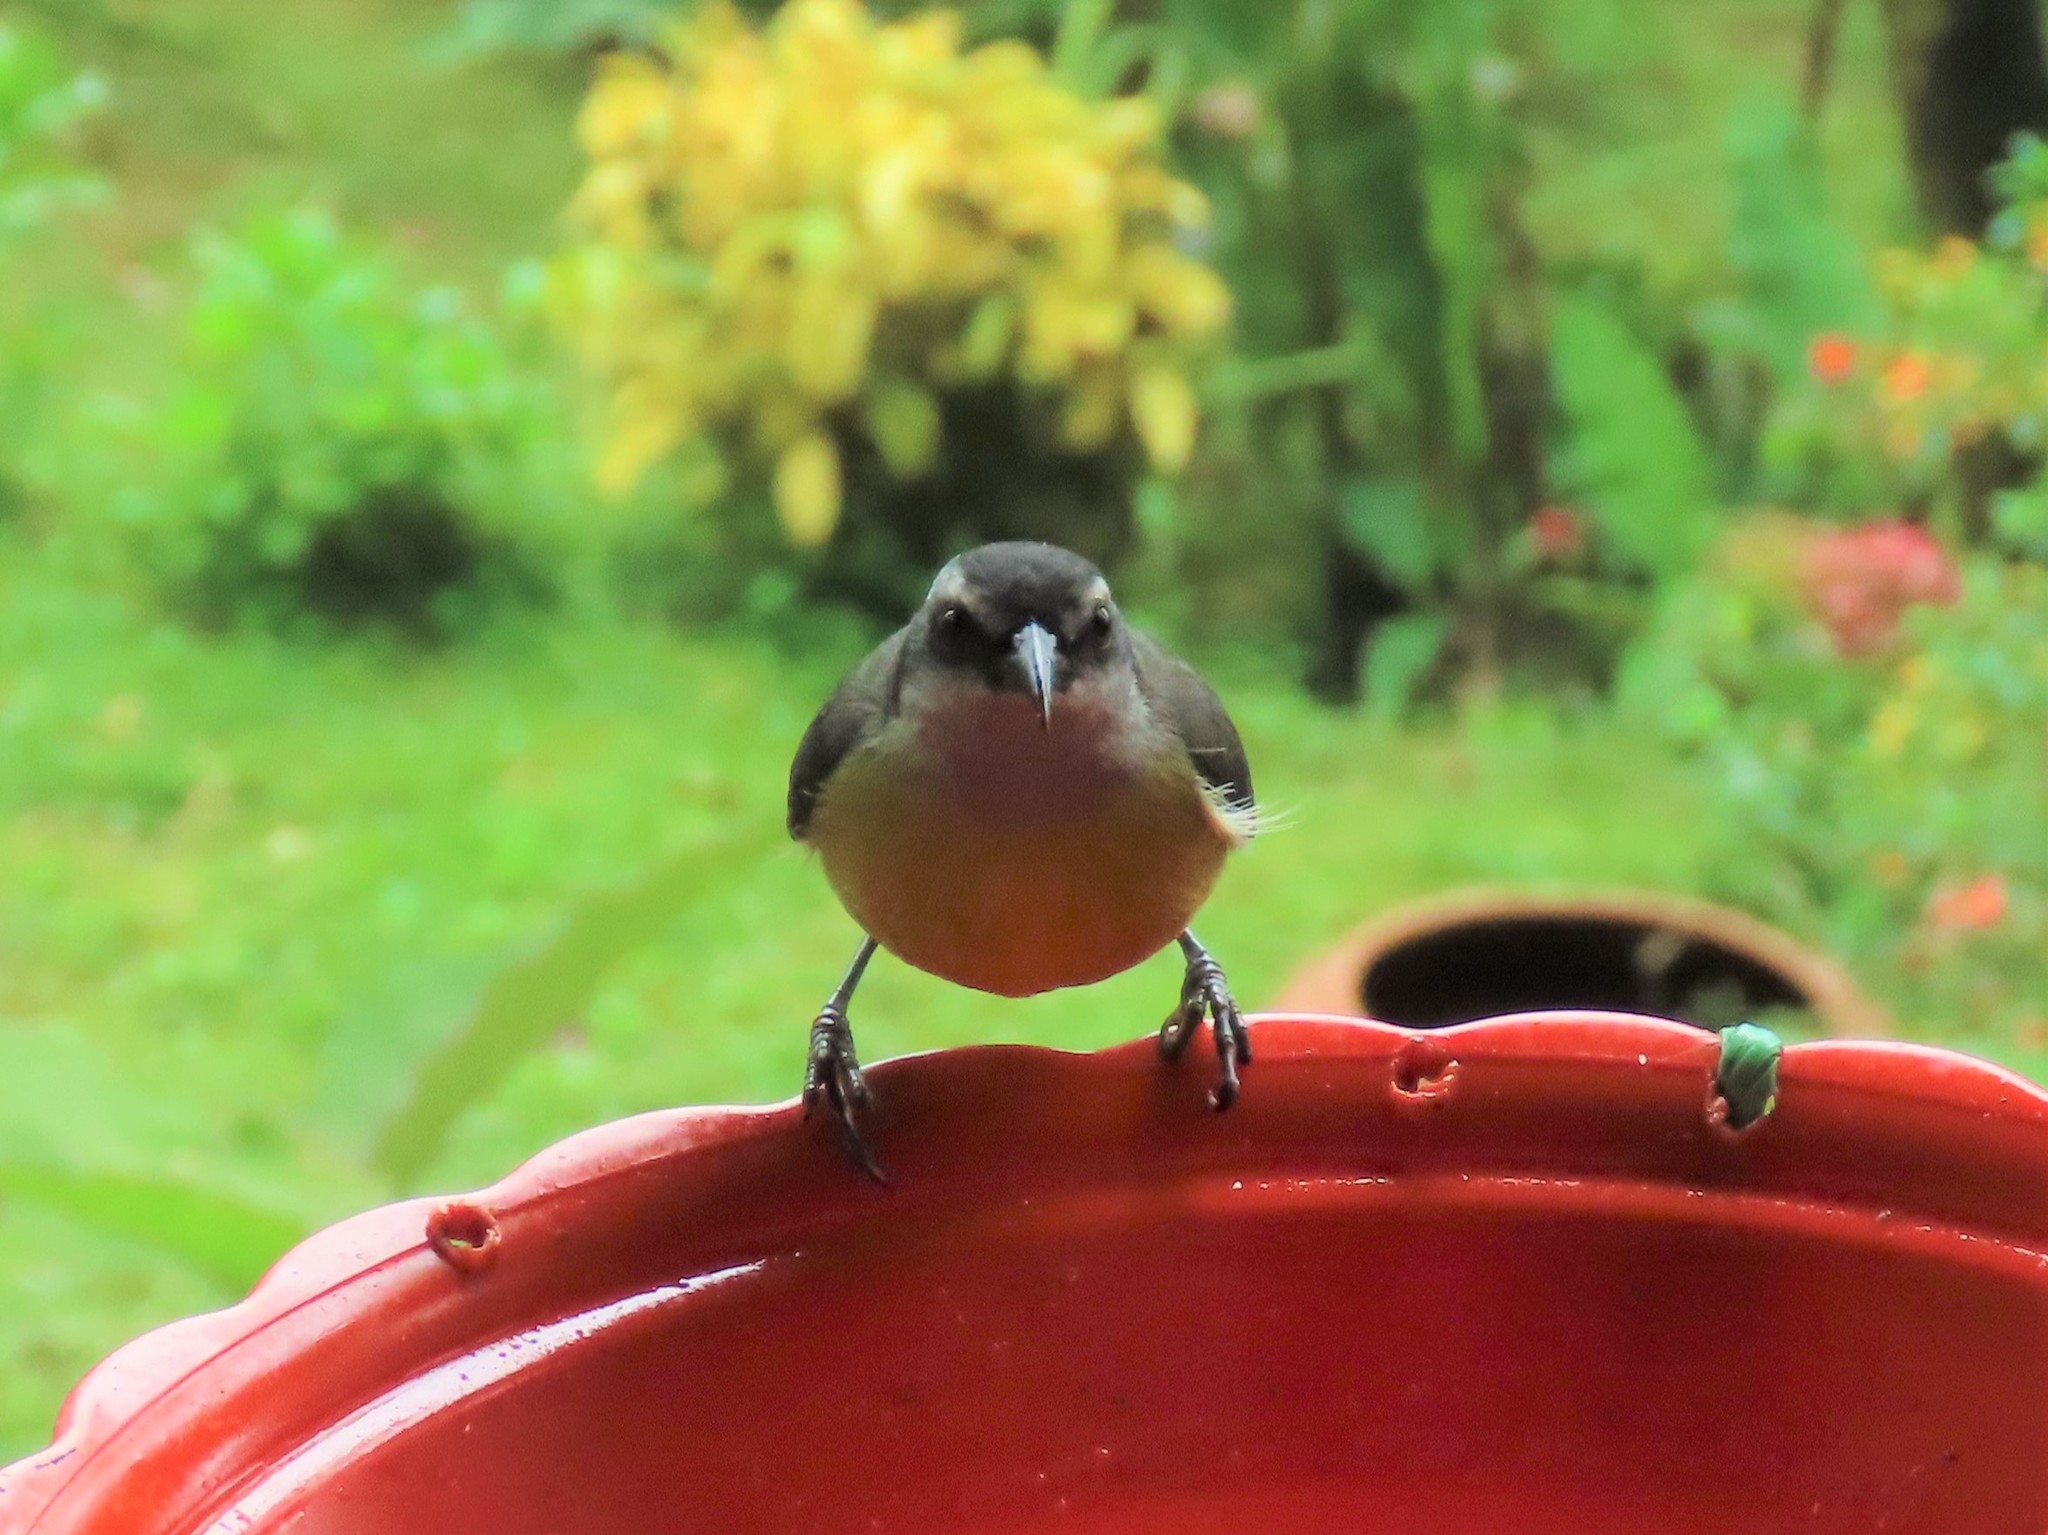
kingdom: Animalia
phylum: Chordata
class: Aves
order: Passeriformes
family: Thraupidae
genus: Coereba
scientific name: Coereba flaveola
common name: Bananaquit
